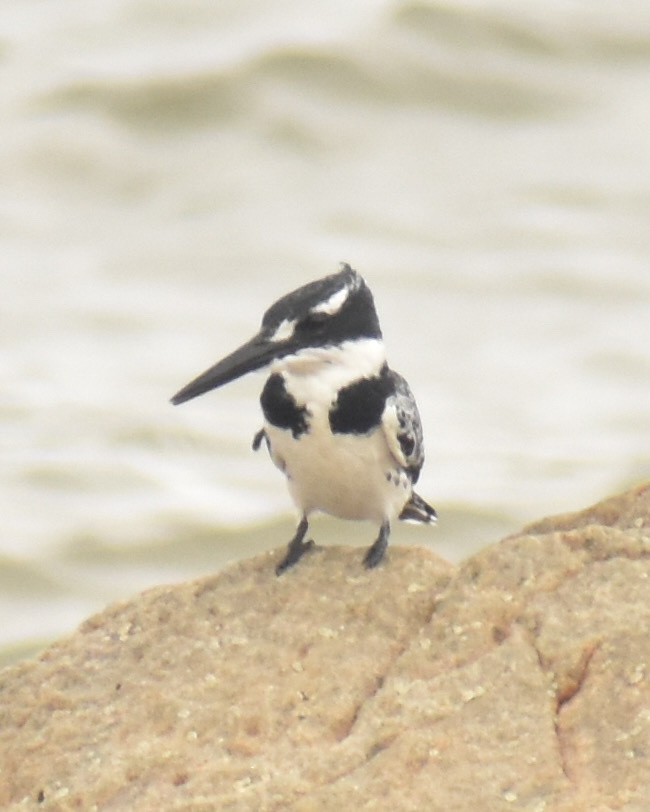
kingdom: Animalia
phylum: Chordata
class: Aves
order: Coraciiformes
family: Alcedinidae
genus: Ceryle
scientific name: Ceryle rudis
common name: Pied kingfisher
